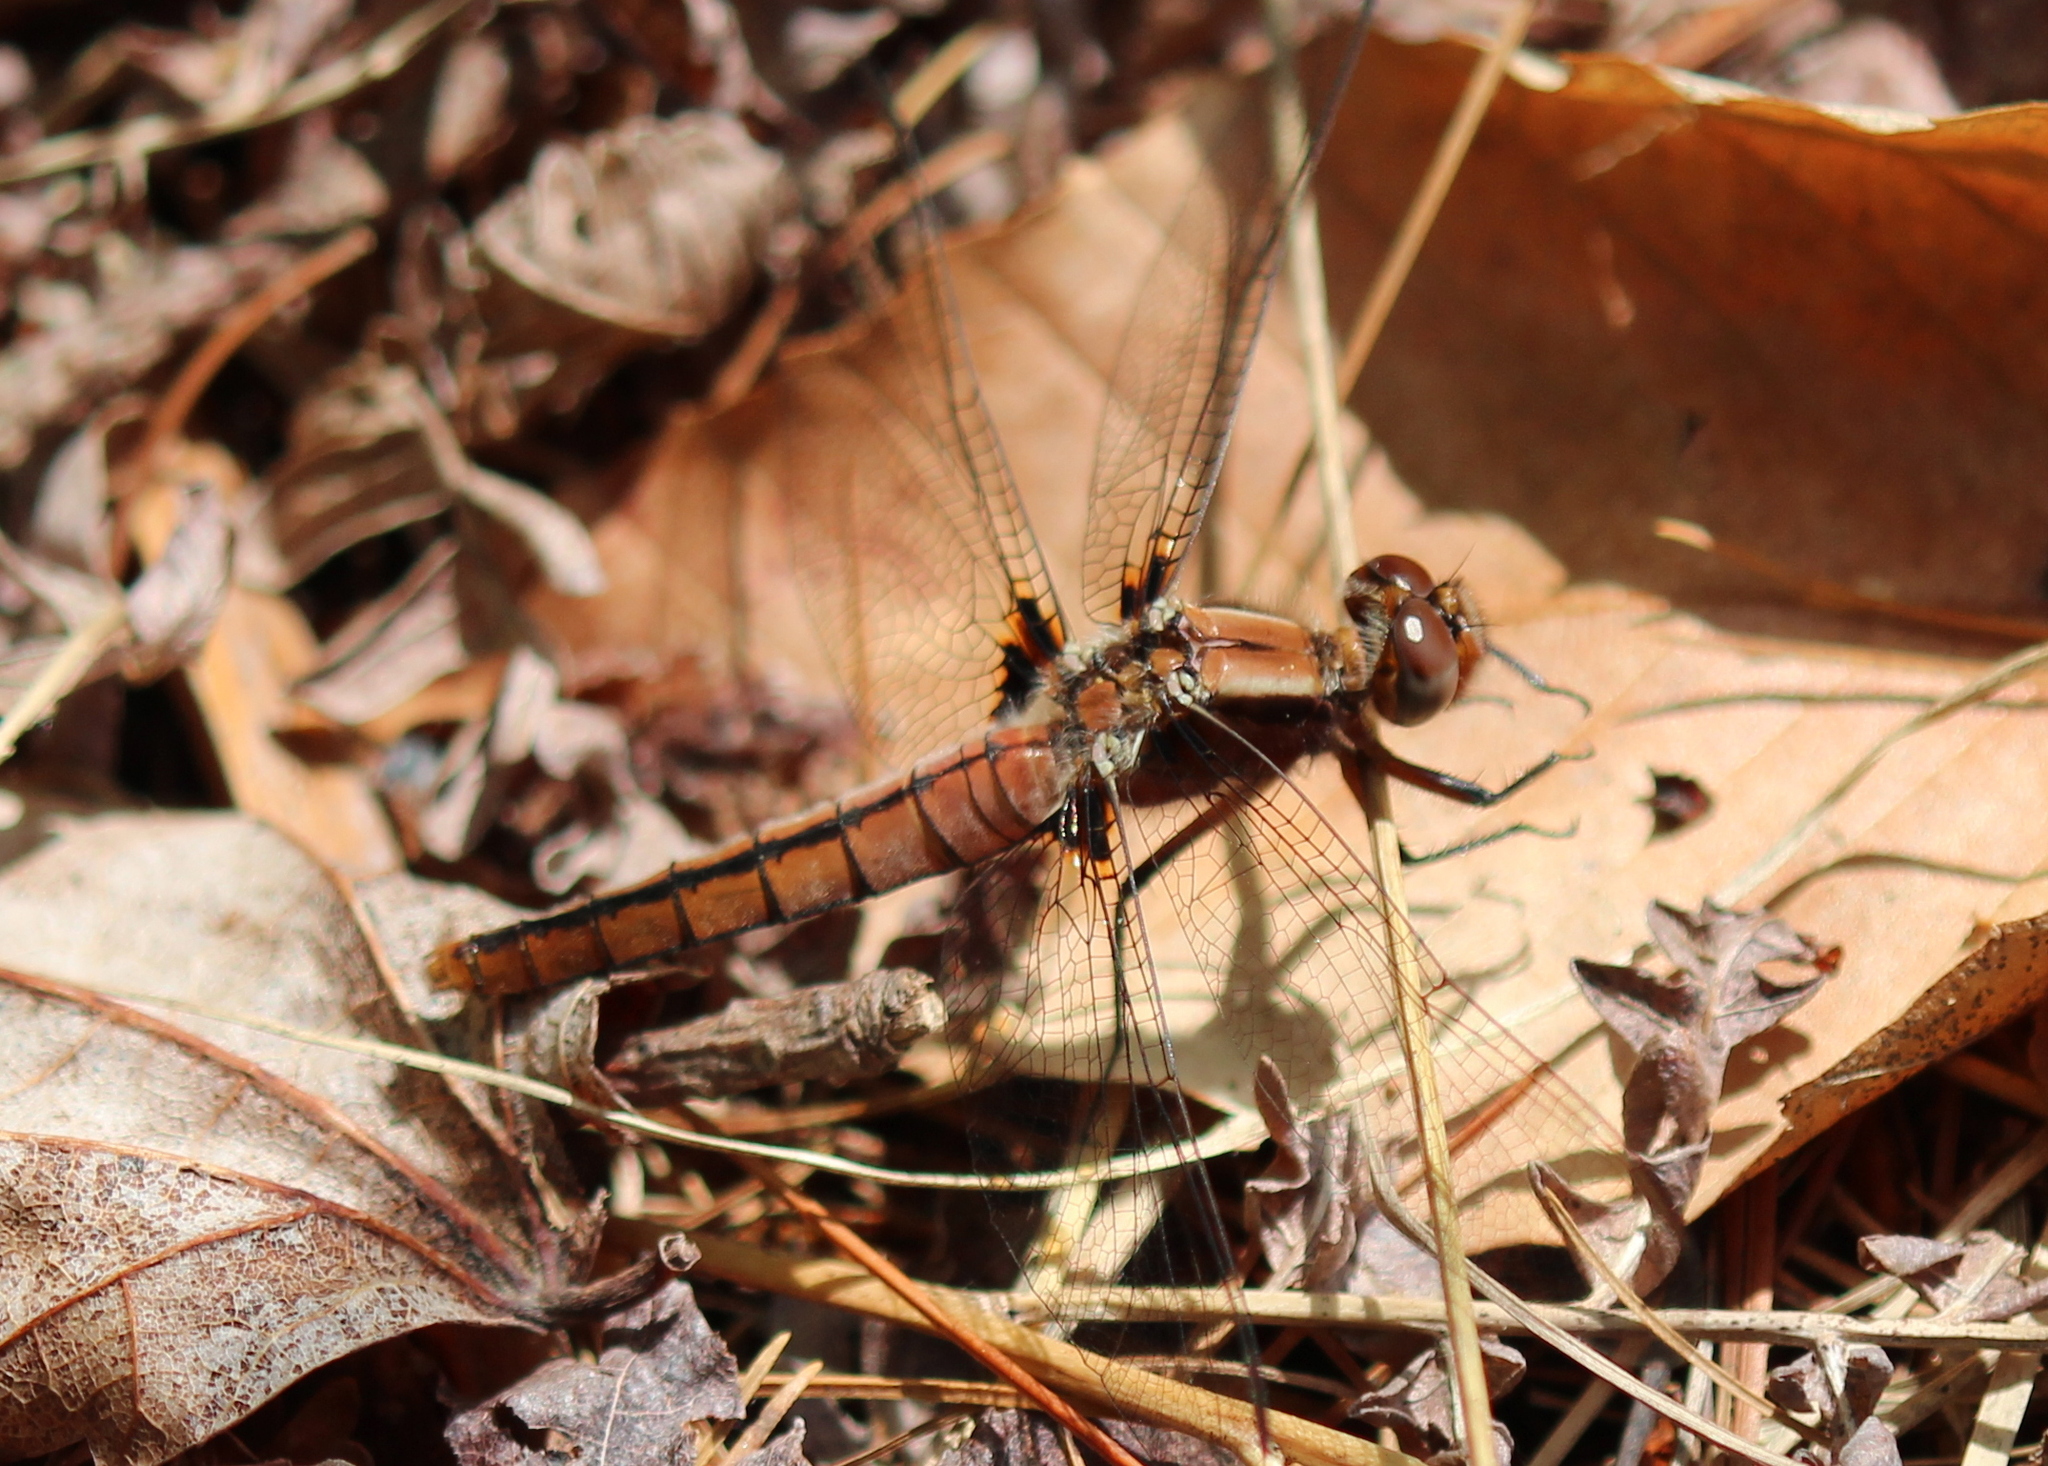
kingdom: Animalia
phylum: Arthropoda
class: Insecta
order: Odonata
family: Libellulidae
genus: Ladona
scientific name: Ladona julia
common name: Chalk-fronted corporal
